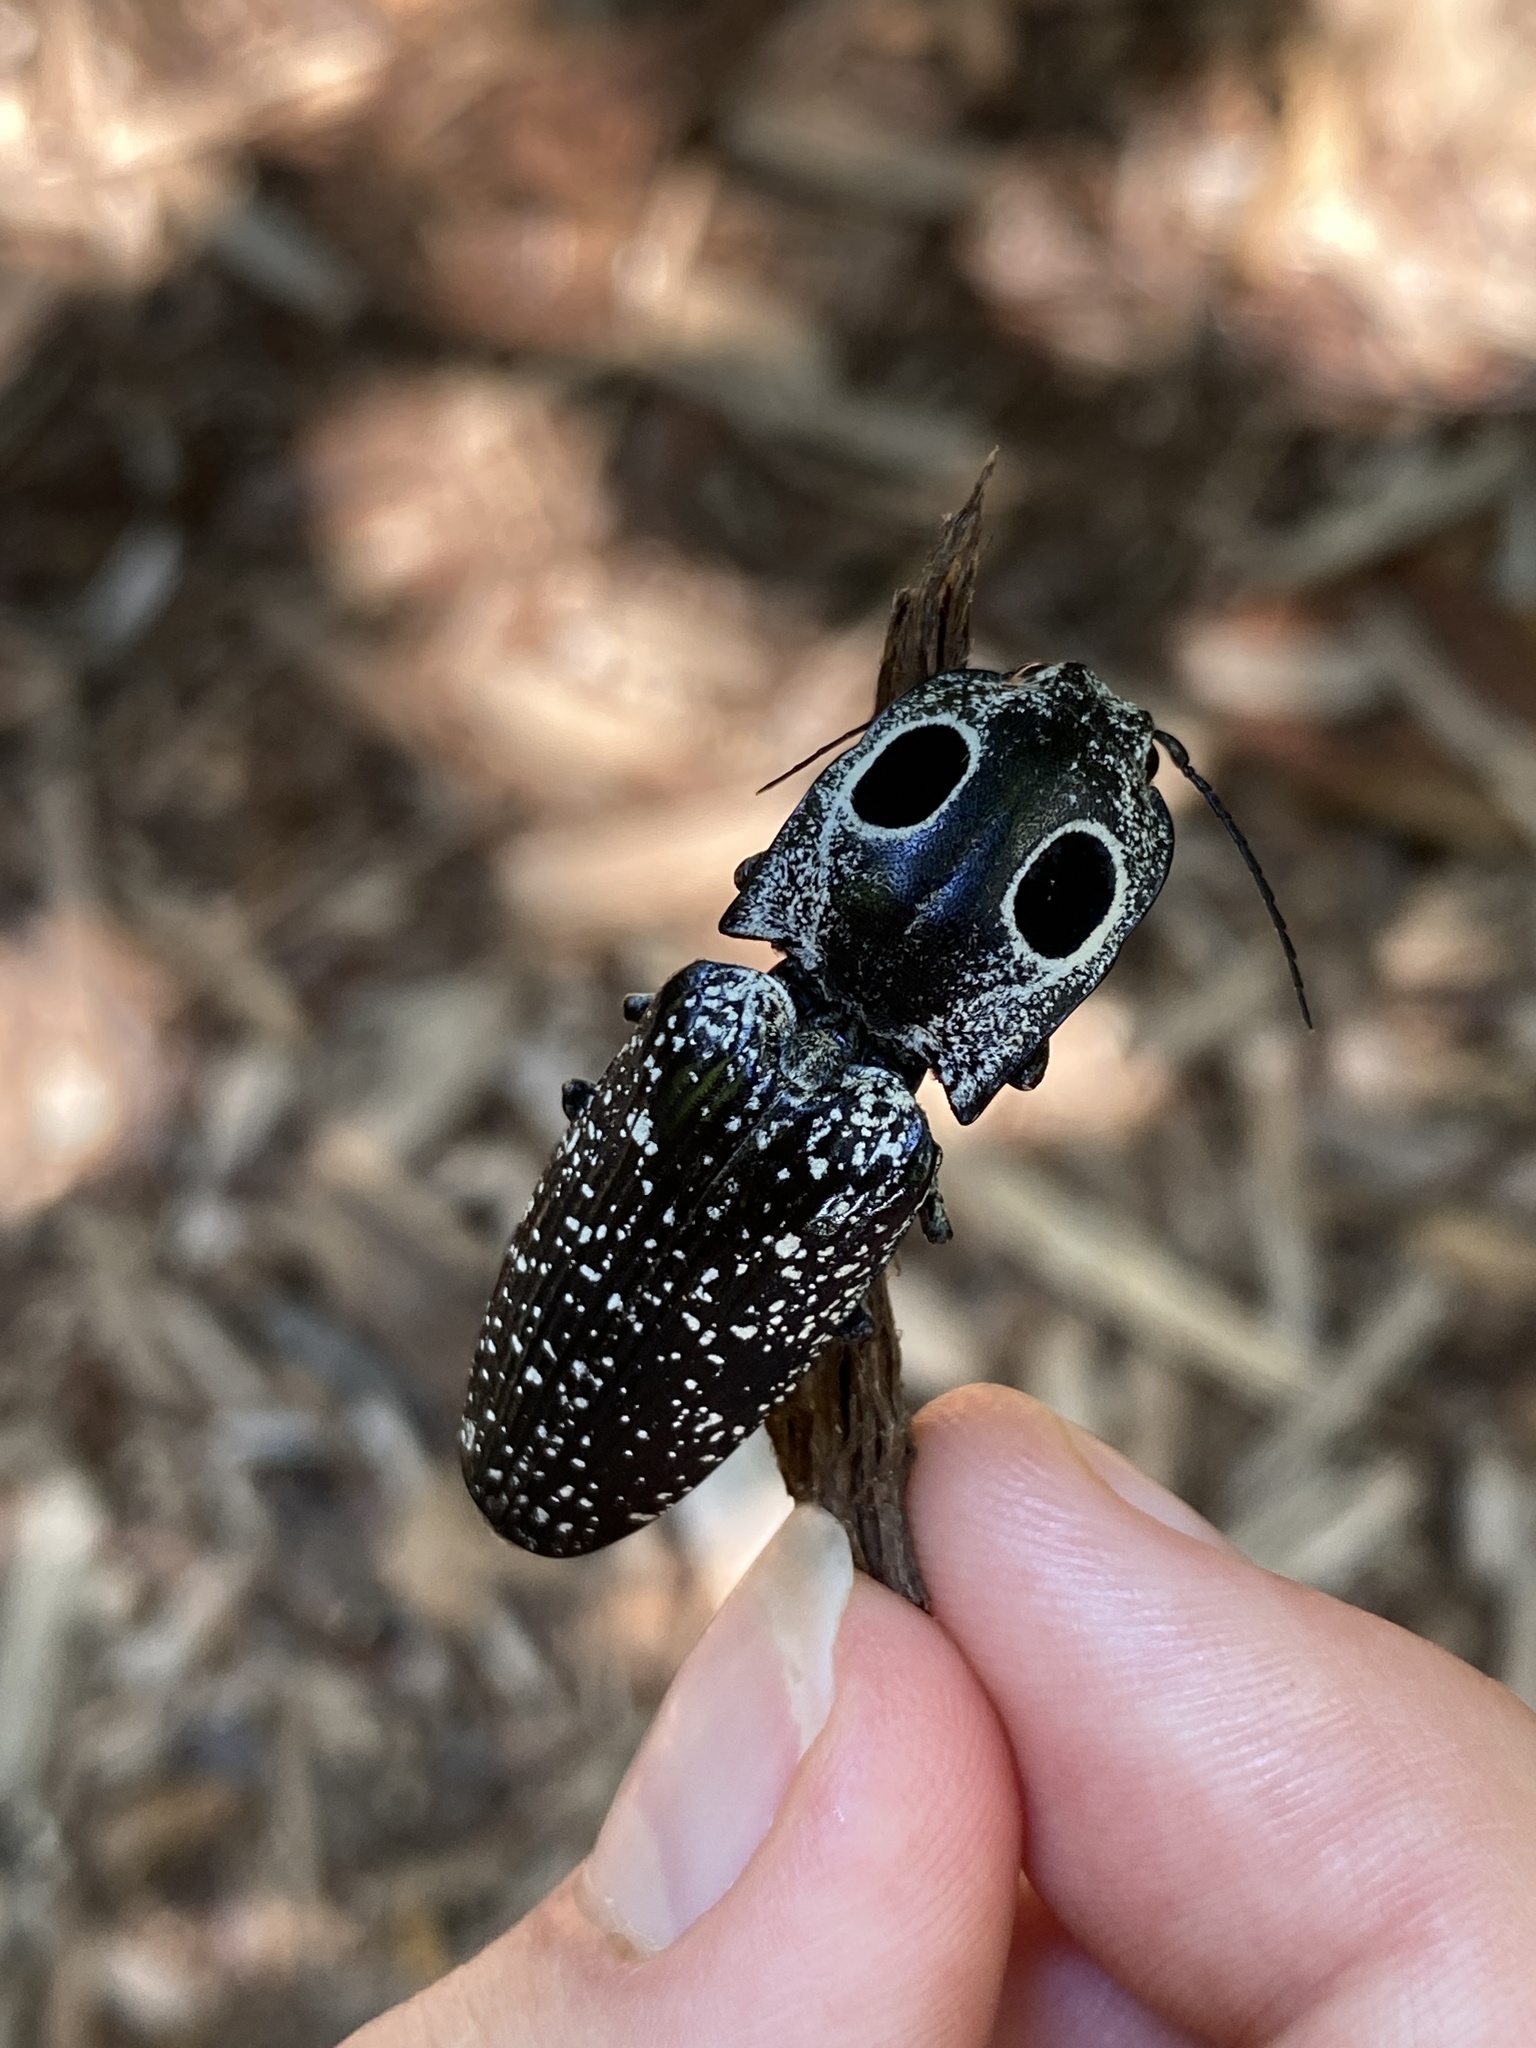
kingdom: Animalia
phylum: Arthropoda
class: Insecta
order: Coleoptera
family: Elateridae
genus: Alaus
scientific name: Alaus oculatus
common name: Eastern eyed click beetle
